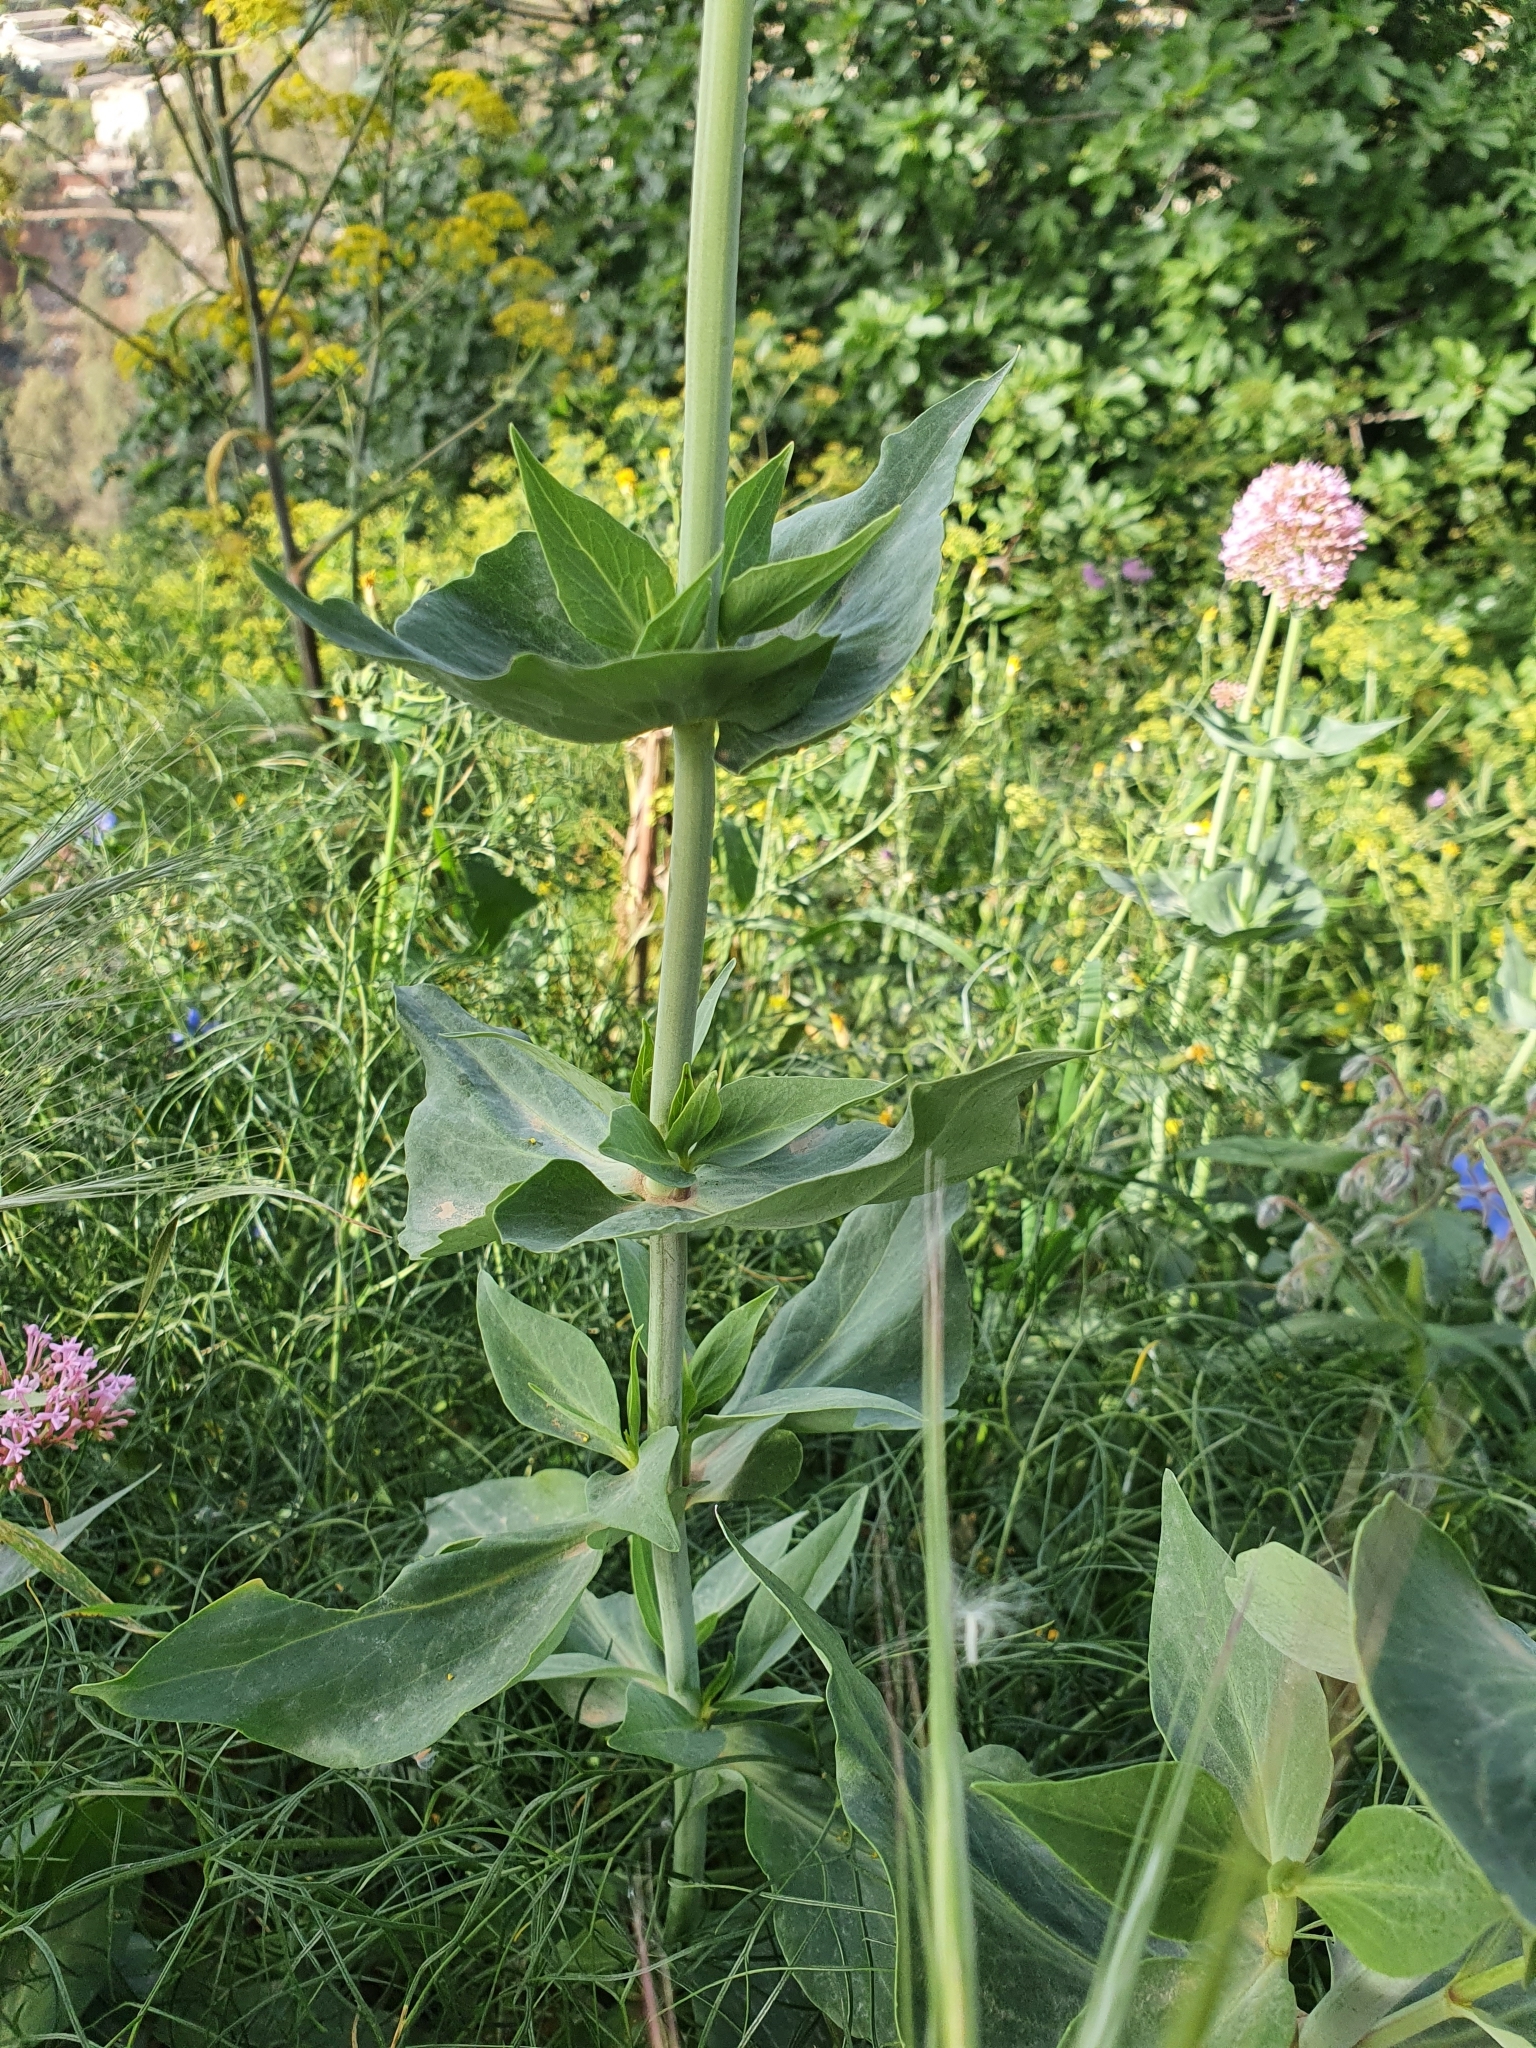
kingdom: Plantae
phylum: Tracheophyta
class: Magnoliopsida
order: Dipsacales
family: Caprifoliaceae
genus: Centranthus
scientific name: Centranthus ruber
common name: Red valerian
